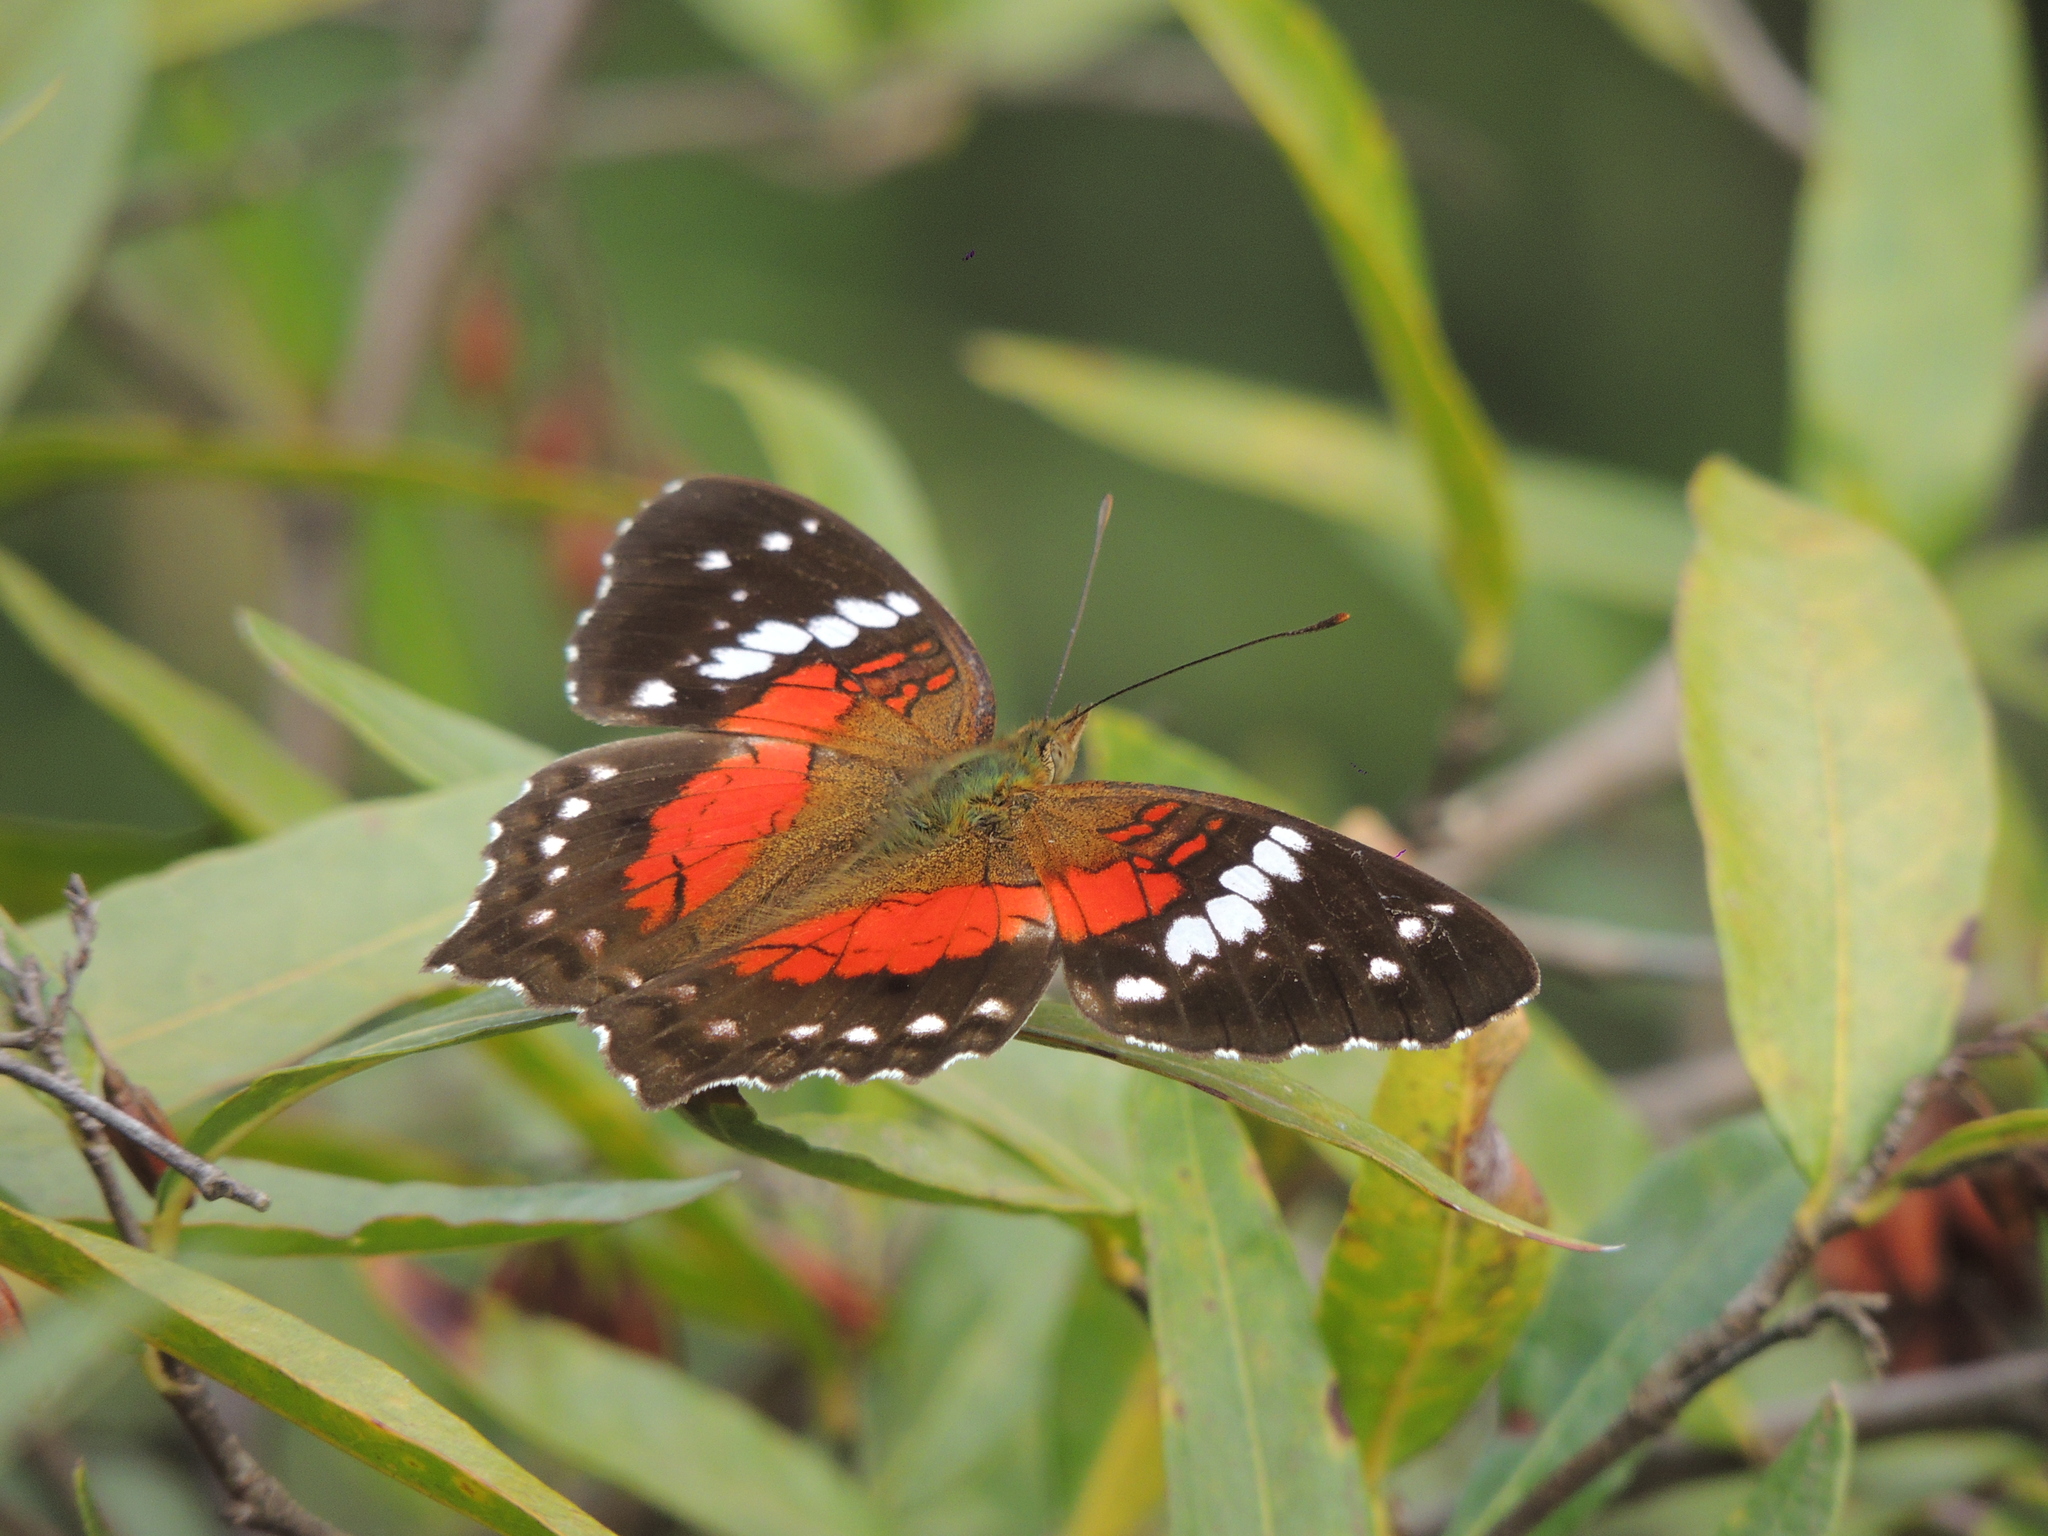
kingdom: Animalia
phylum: Arthropoda
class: Insecta
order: Lepidoptera
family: Nymphalidae
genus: Anartia
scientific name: Anartia amathea
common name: Red peacock
